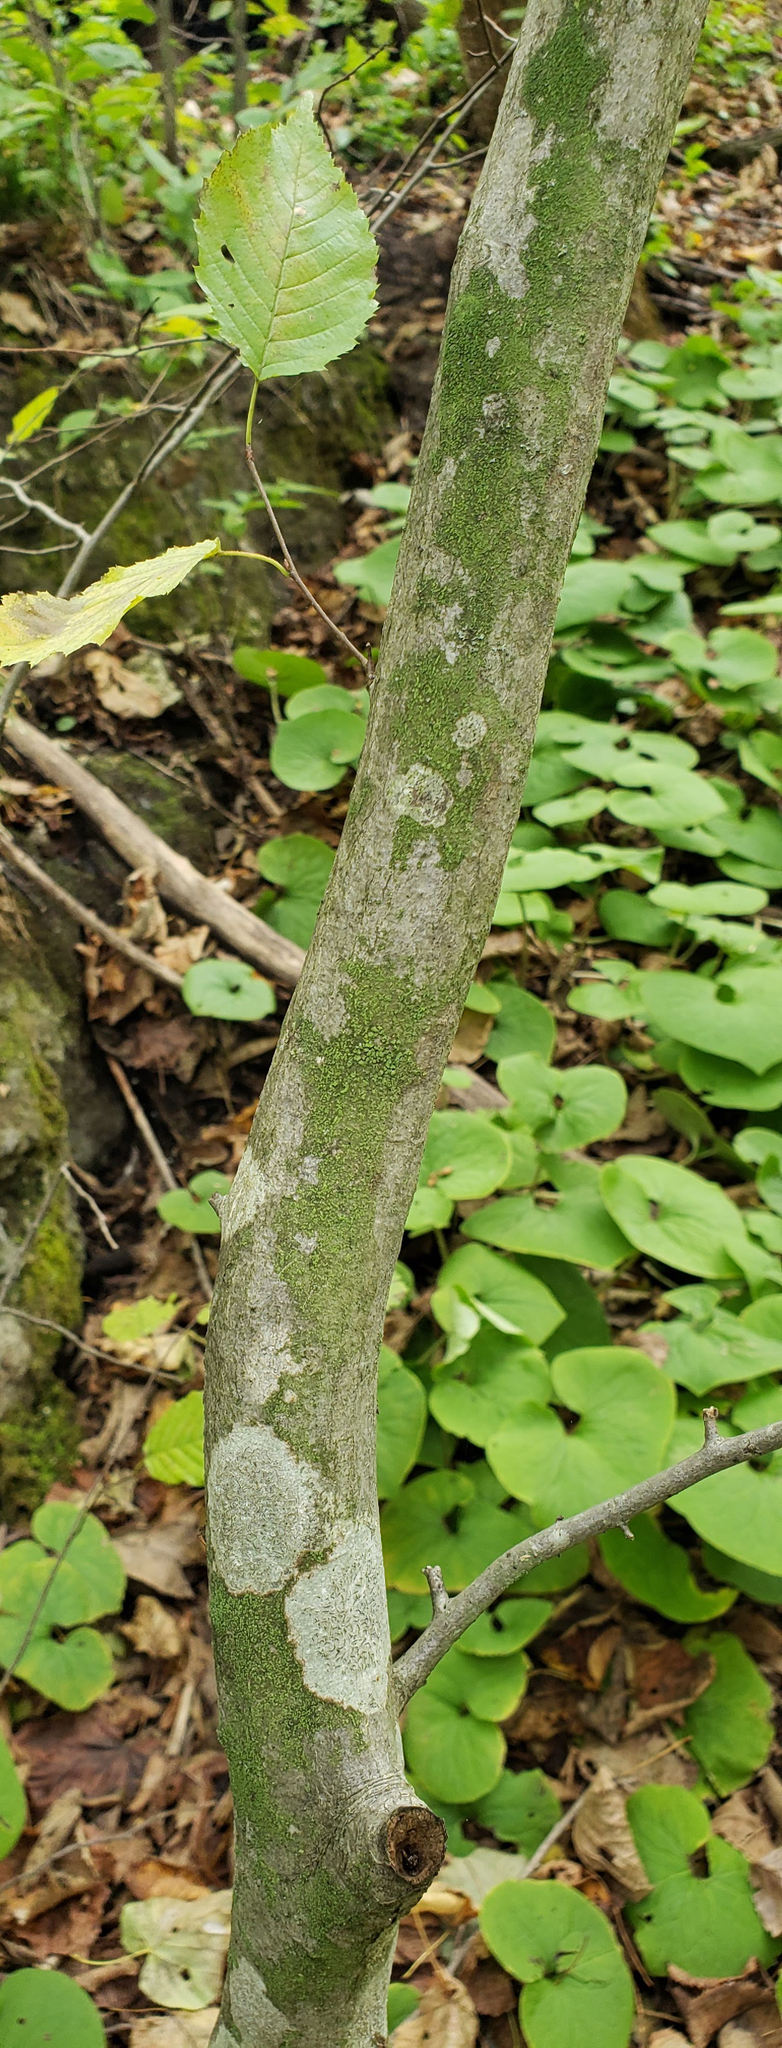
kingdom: Plantae
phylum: Tracheophyta
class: Magnoliopsida
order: Fagales
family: Betulaceae
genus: Carpinus
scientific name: Carpinus caroliniana
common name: American hornbeam
